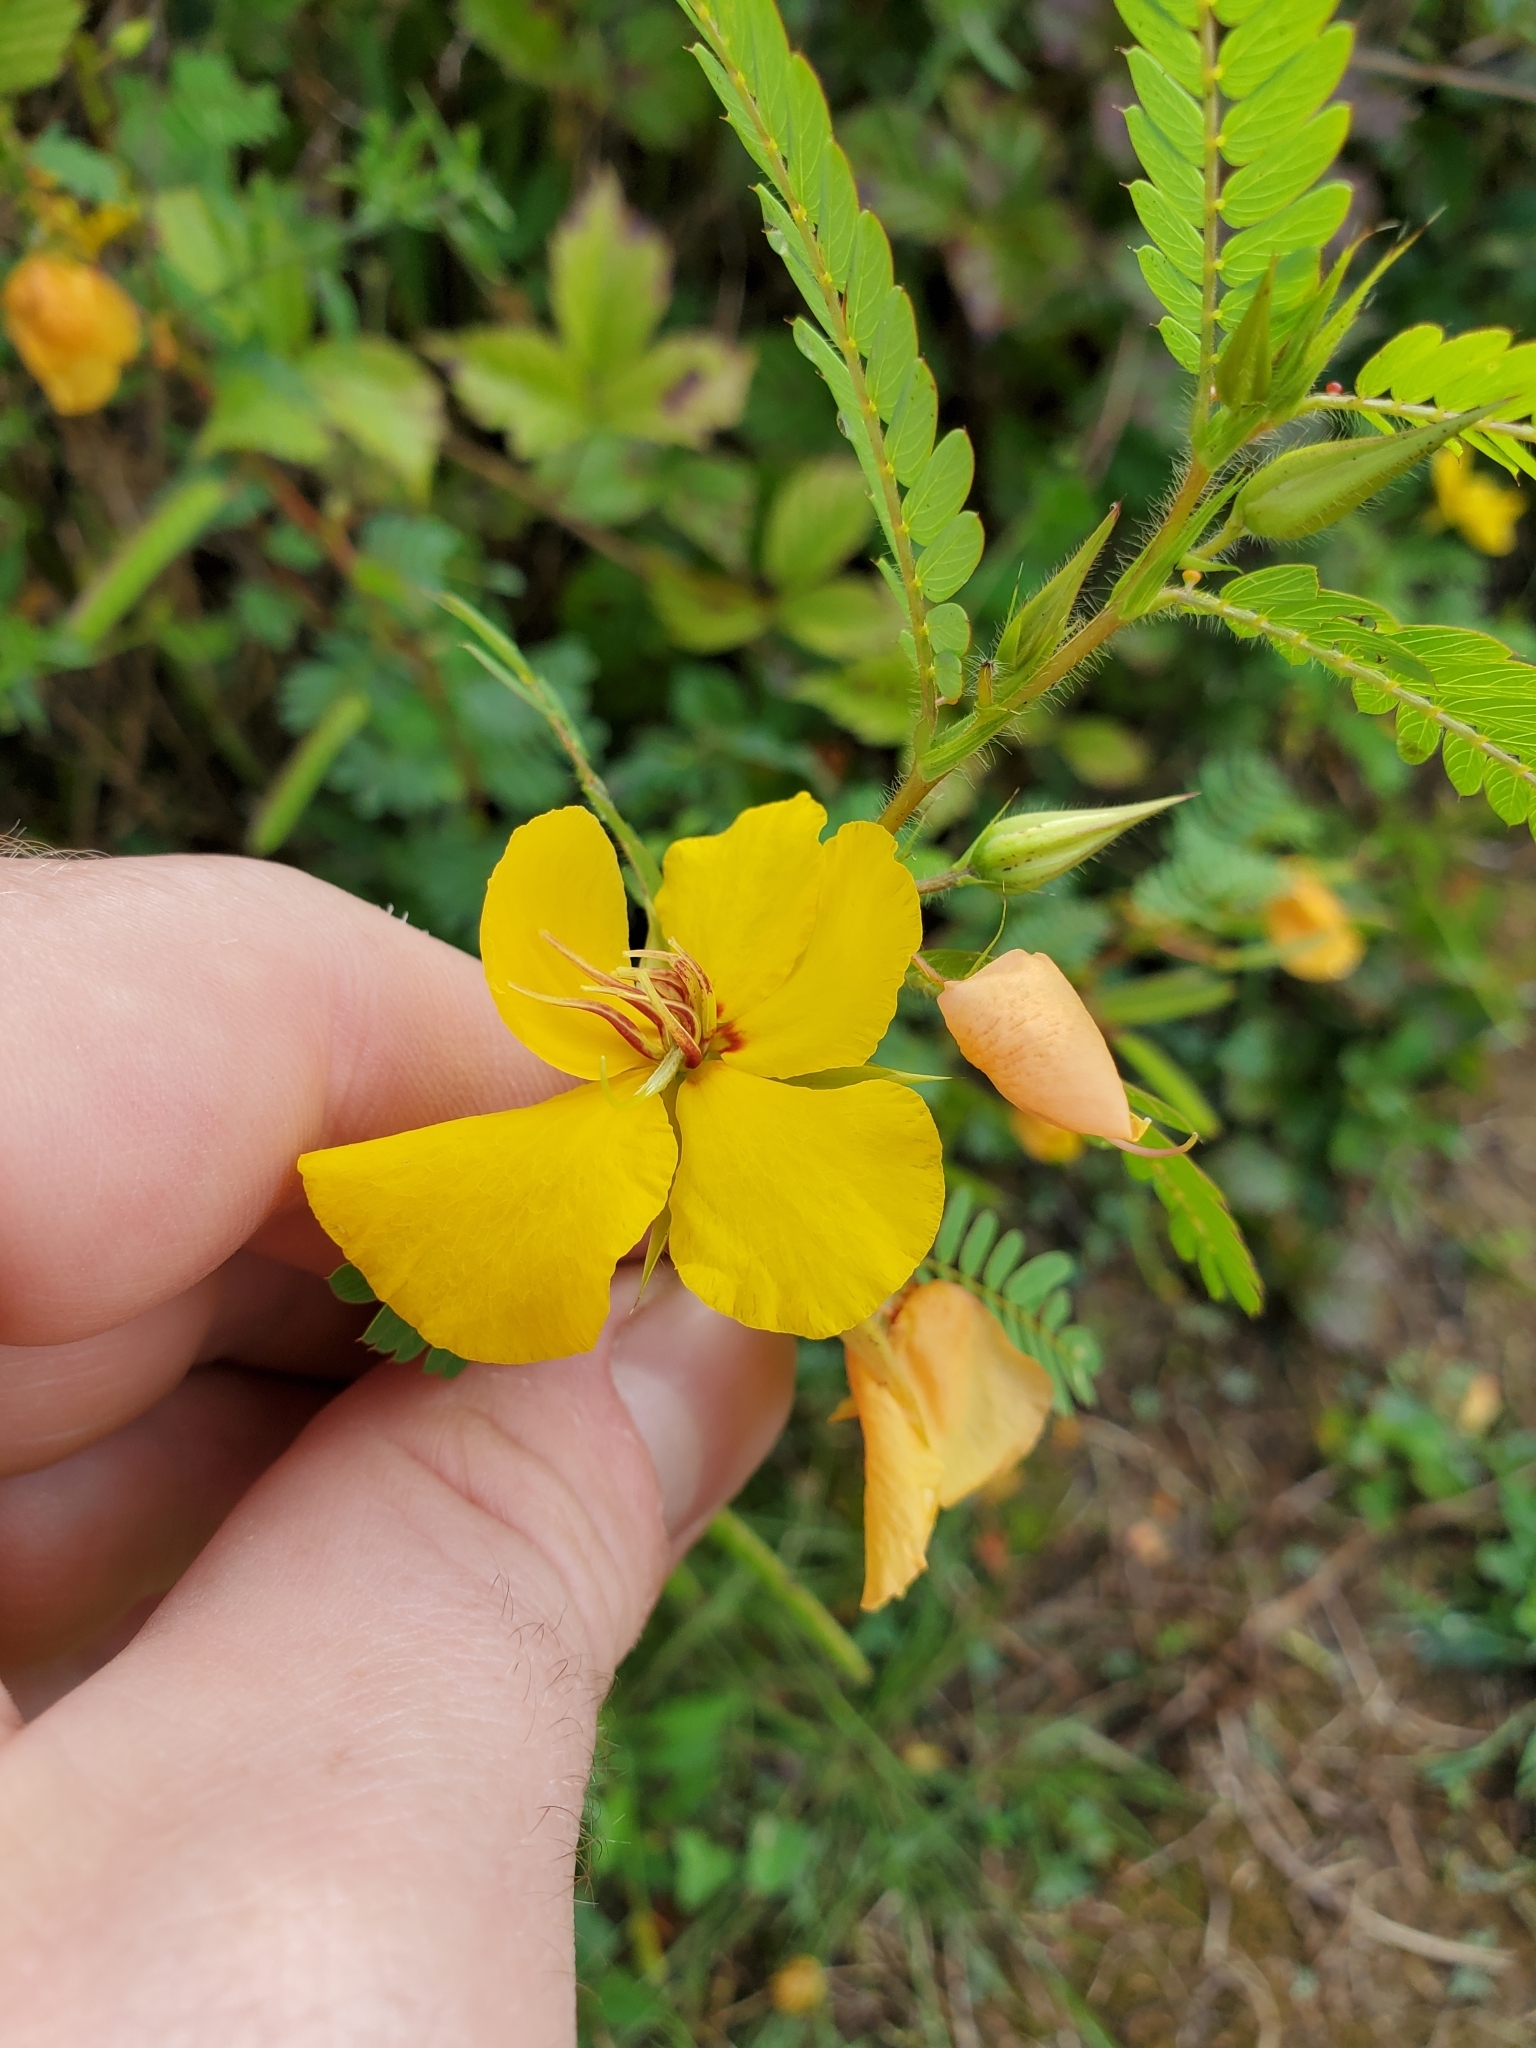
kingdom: Plantae
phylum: Tracheophyta
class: Magnoliopsida
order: Fabales
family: Fabaceae
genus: Chamaecrista
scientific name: Chamaecrista fasciculata
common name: Golden cassia
